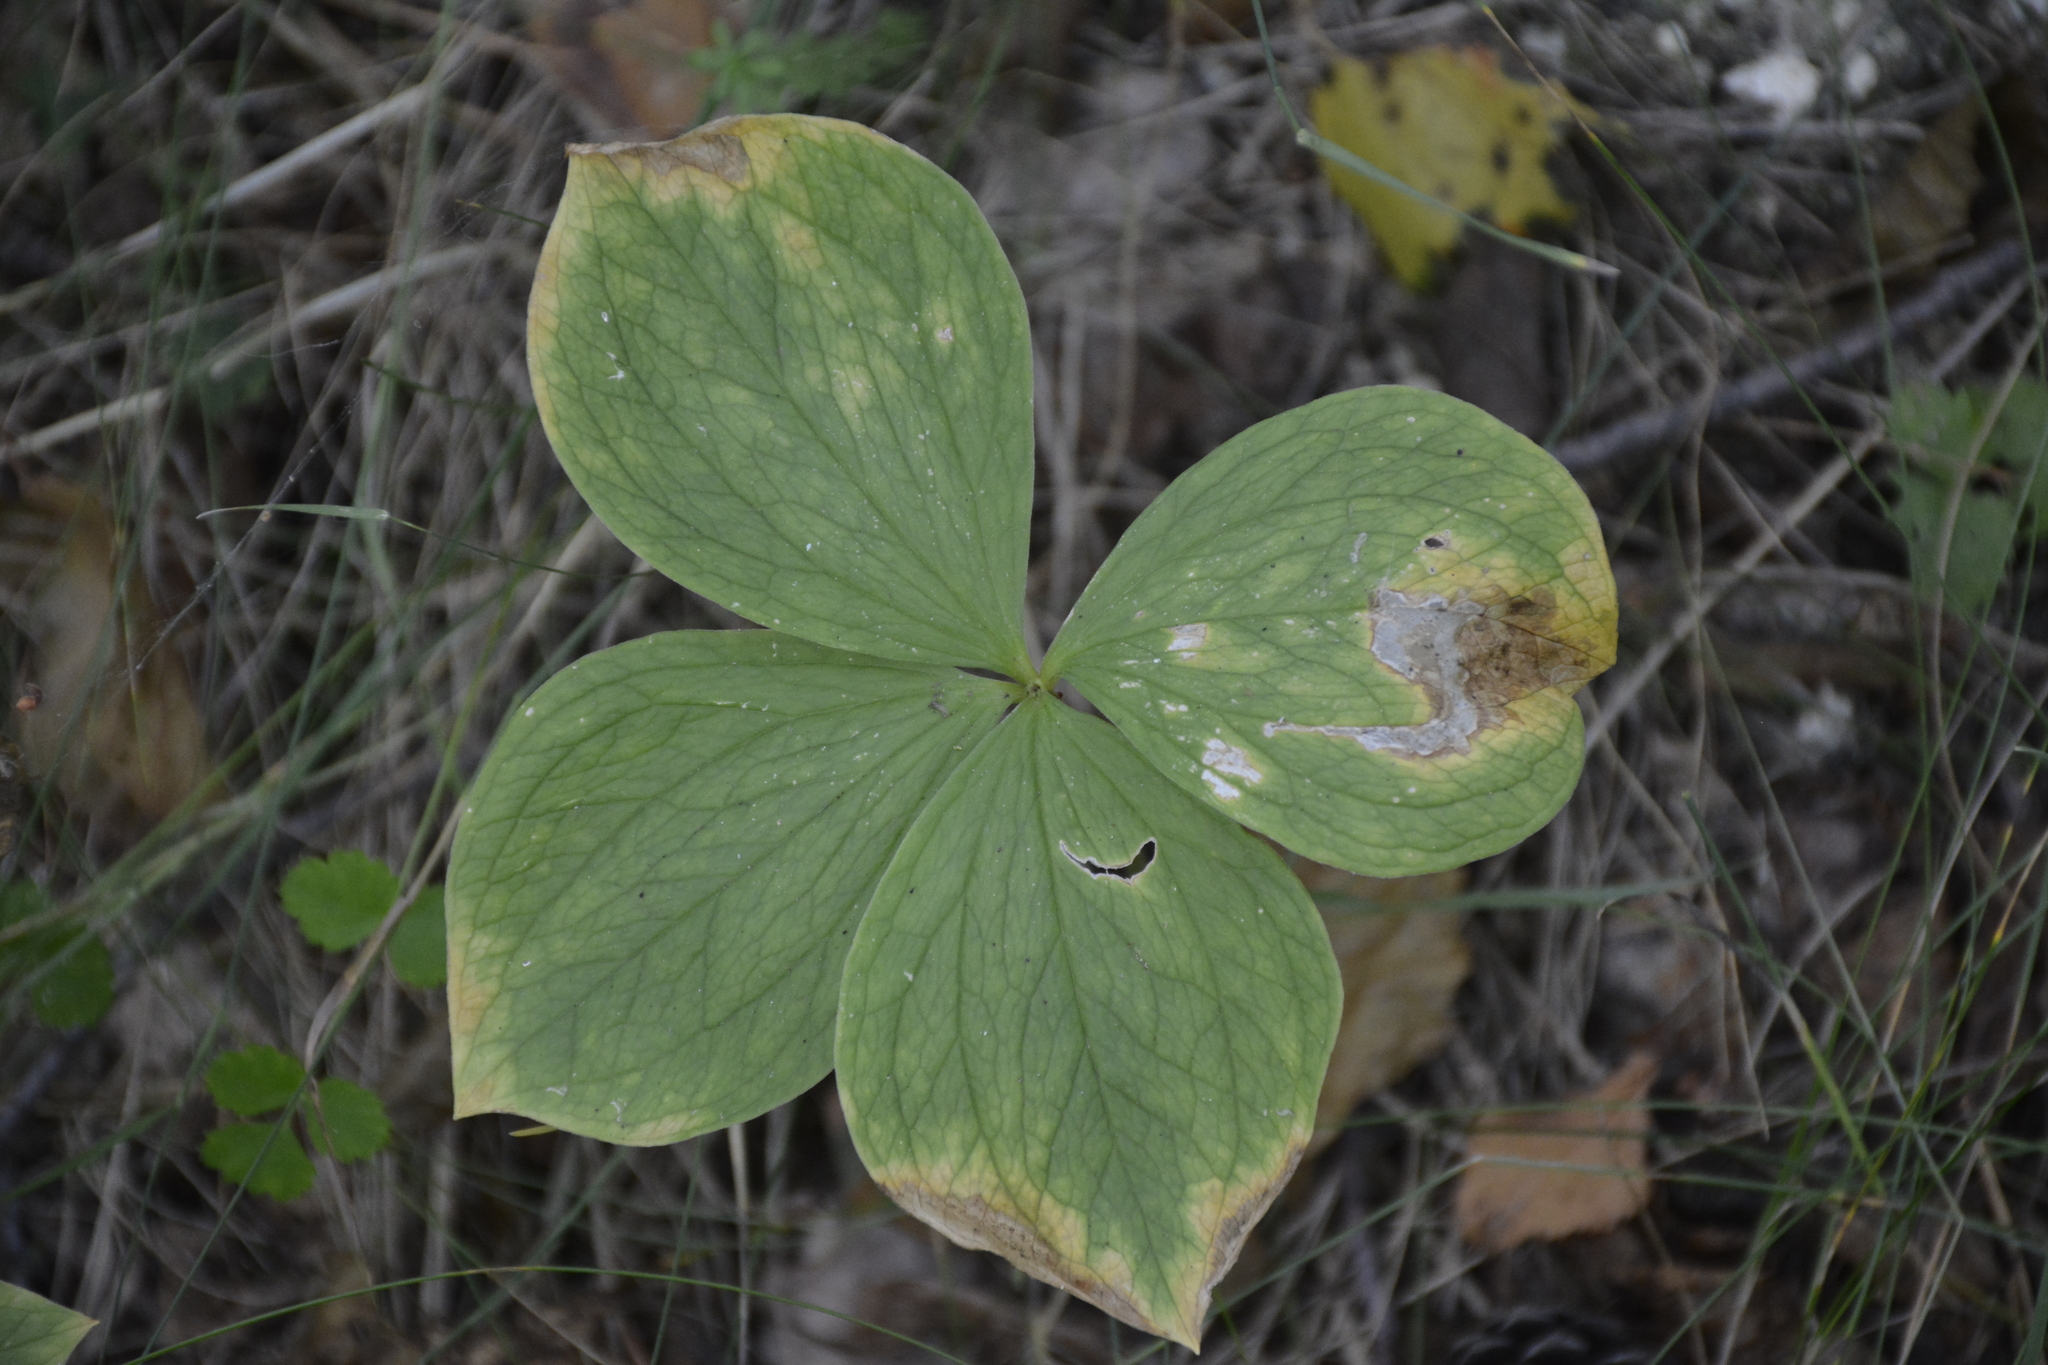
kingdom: Plantae
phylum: Tracheophyta
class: Liliopsida
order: Liliales
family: Melanthiaceae
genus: Paris
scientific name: Paris quadrifolia
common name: Herb-paris
